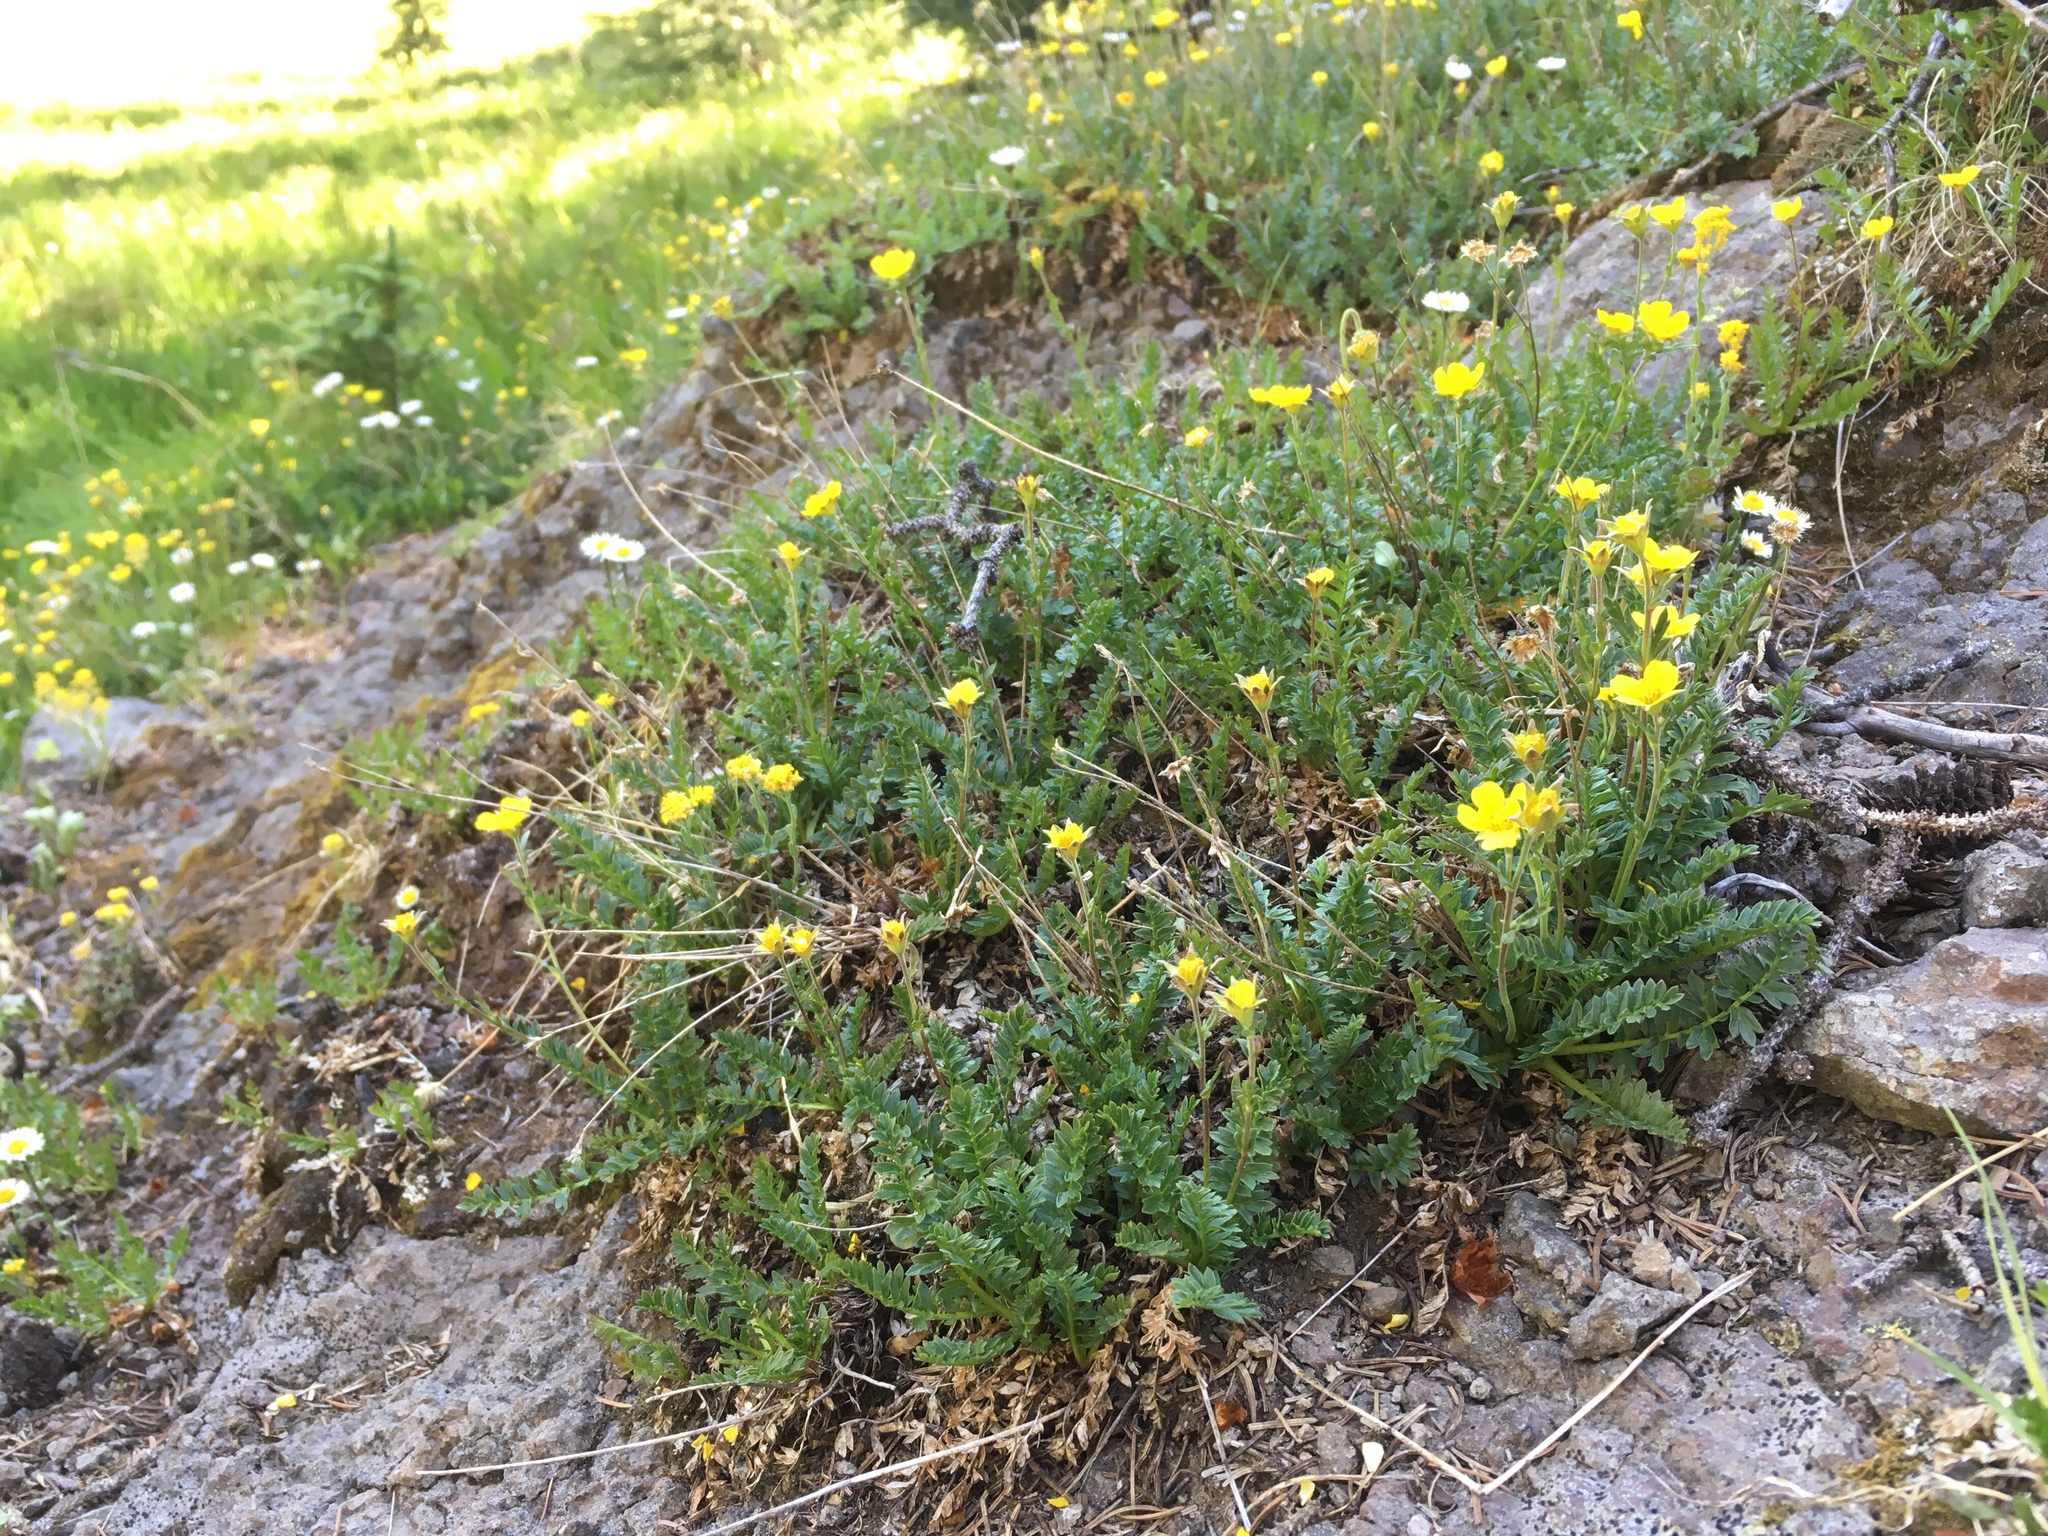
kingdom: Plantae
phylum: Tracheophyta
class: Magnoliopsida
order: Rosales
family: Rosaceae
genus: Geum
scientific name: Geum rossii
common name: Alpine avens
